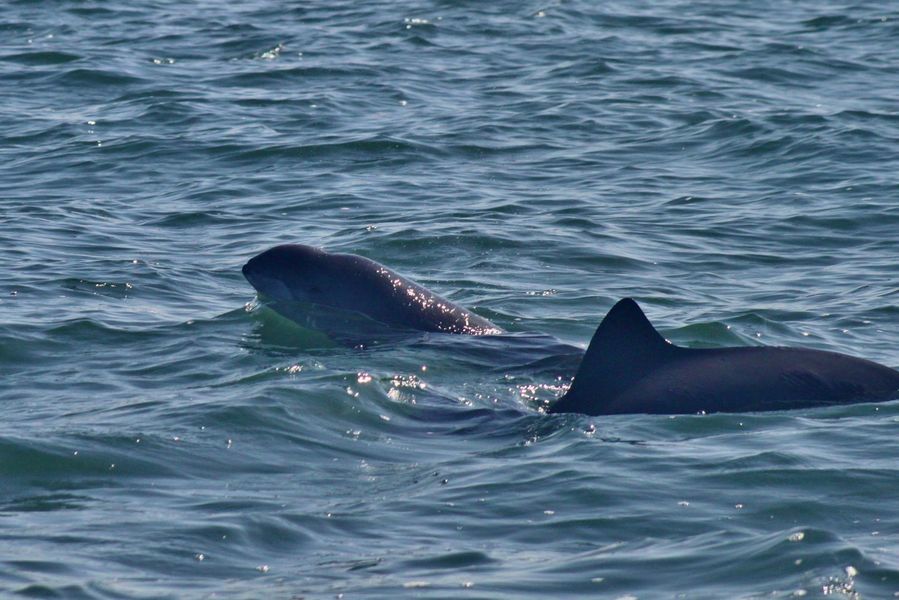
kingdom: Animalia
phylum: Chordata
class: Mammalia
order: Cetacea
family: Phocoenidae
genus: Phocoena
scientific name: Phocoena phocoena
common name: Harbor porpoise
